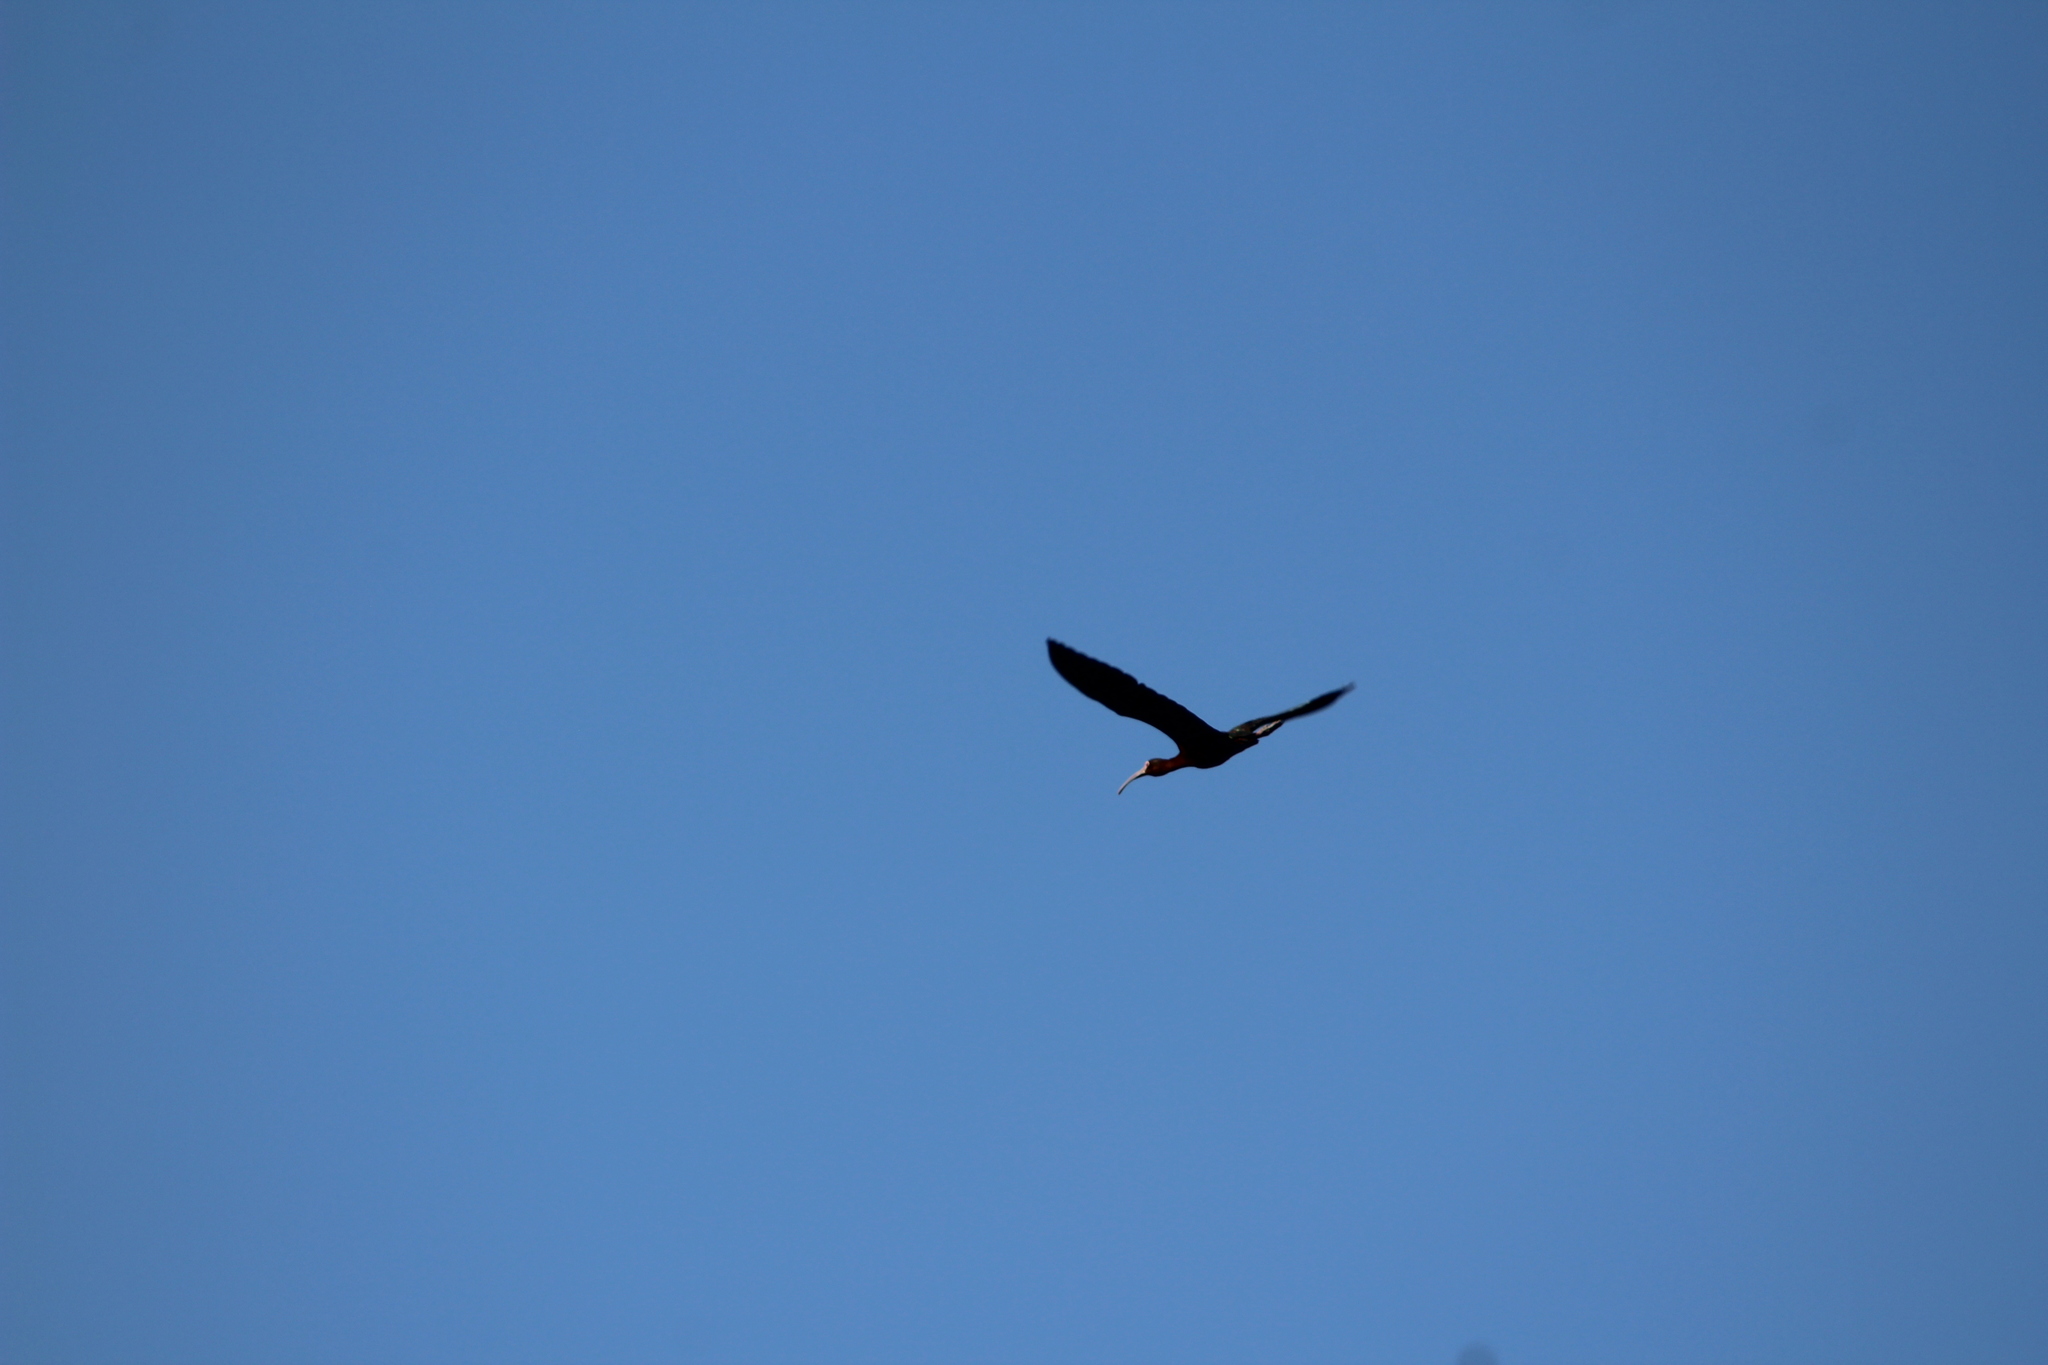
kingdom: Animalia
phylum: Chordata
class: Aves
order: Pelecaniformes
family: Threskiornithidae
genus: Plegadis
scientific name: Plegadis chihi
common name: White-faced ibis
